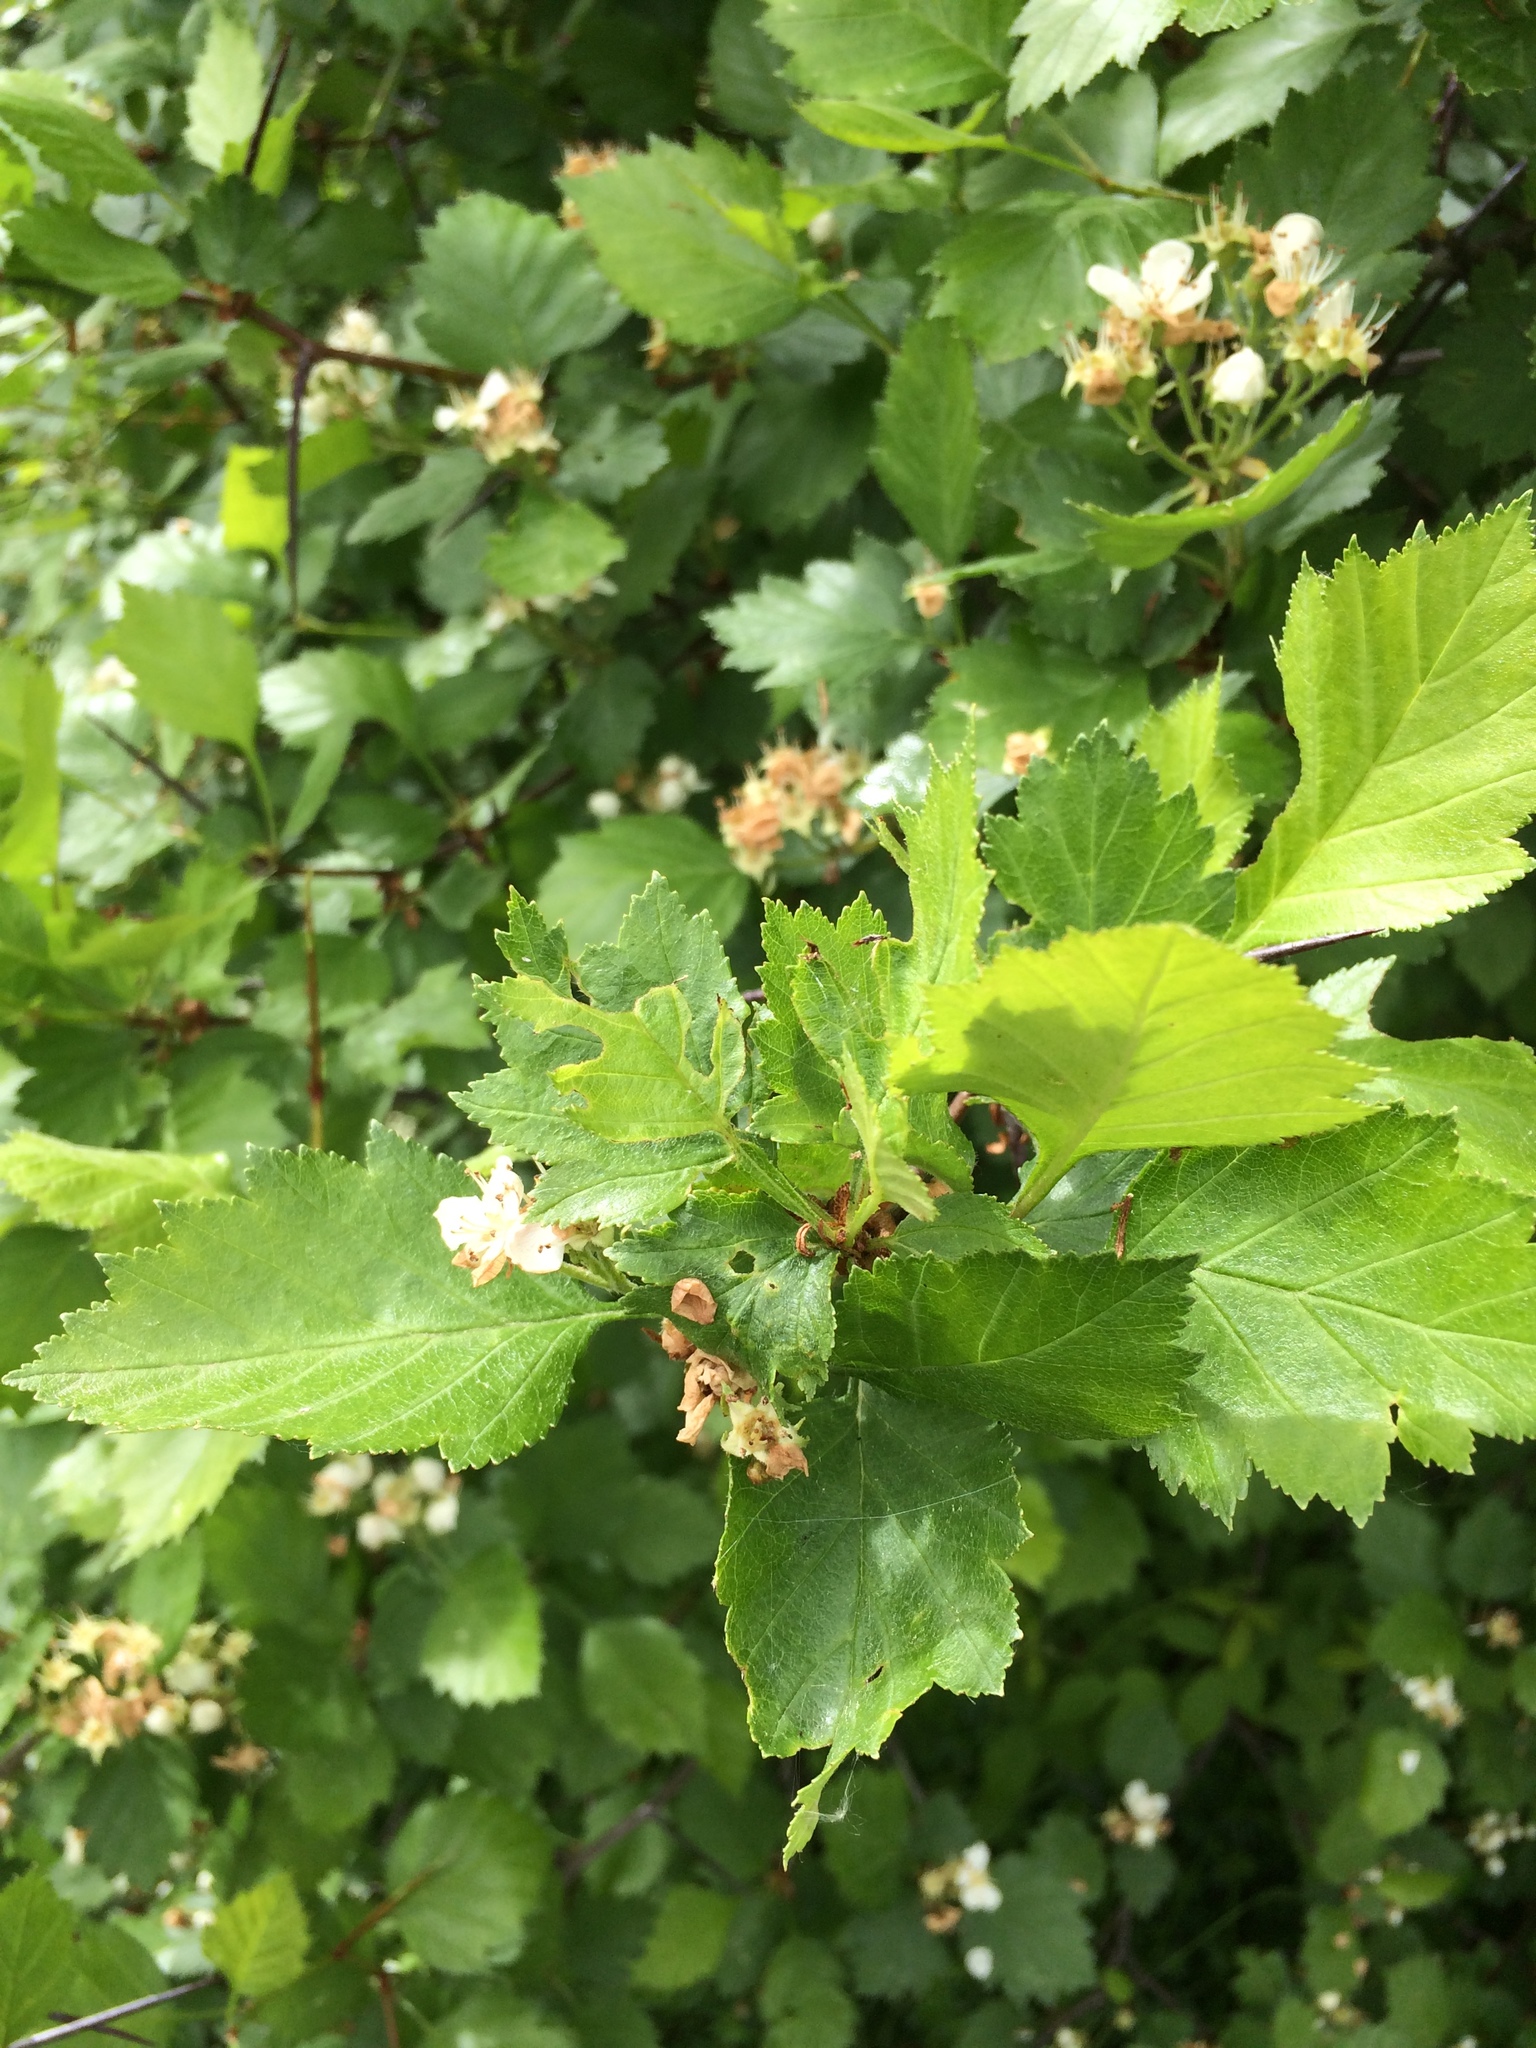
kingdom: Plantae
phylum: Tracheophyta
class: Magnoliopsida
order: Rosales
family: Rosaceae
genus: Crataegus
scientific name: Crataegus chrysocarpa
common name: Fire-berry hawthorn
